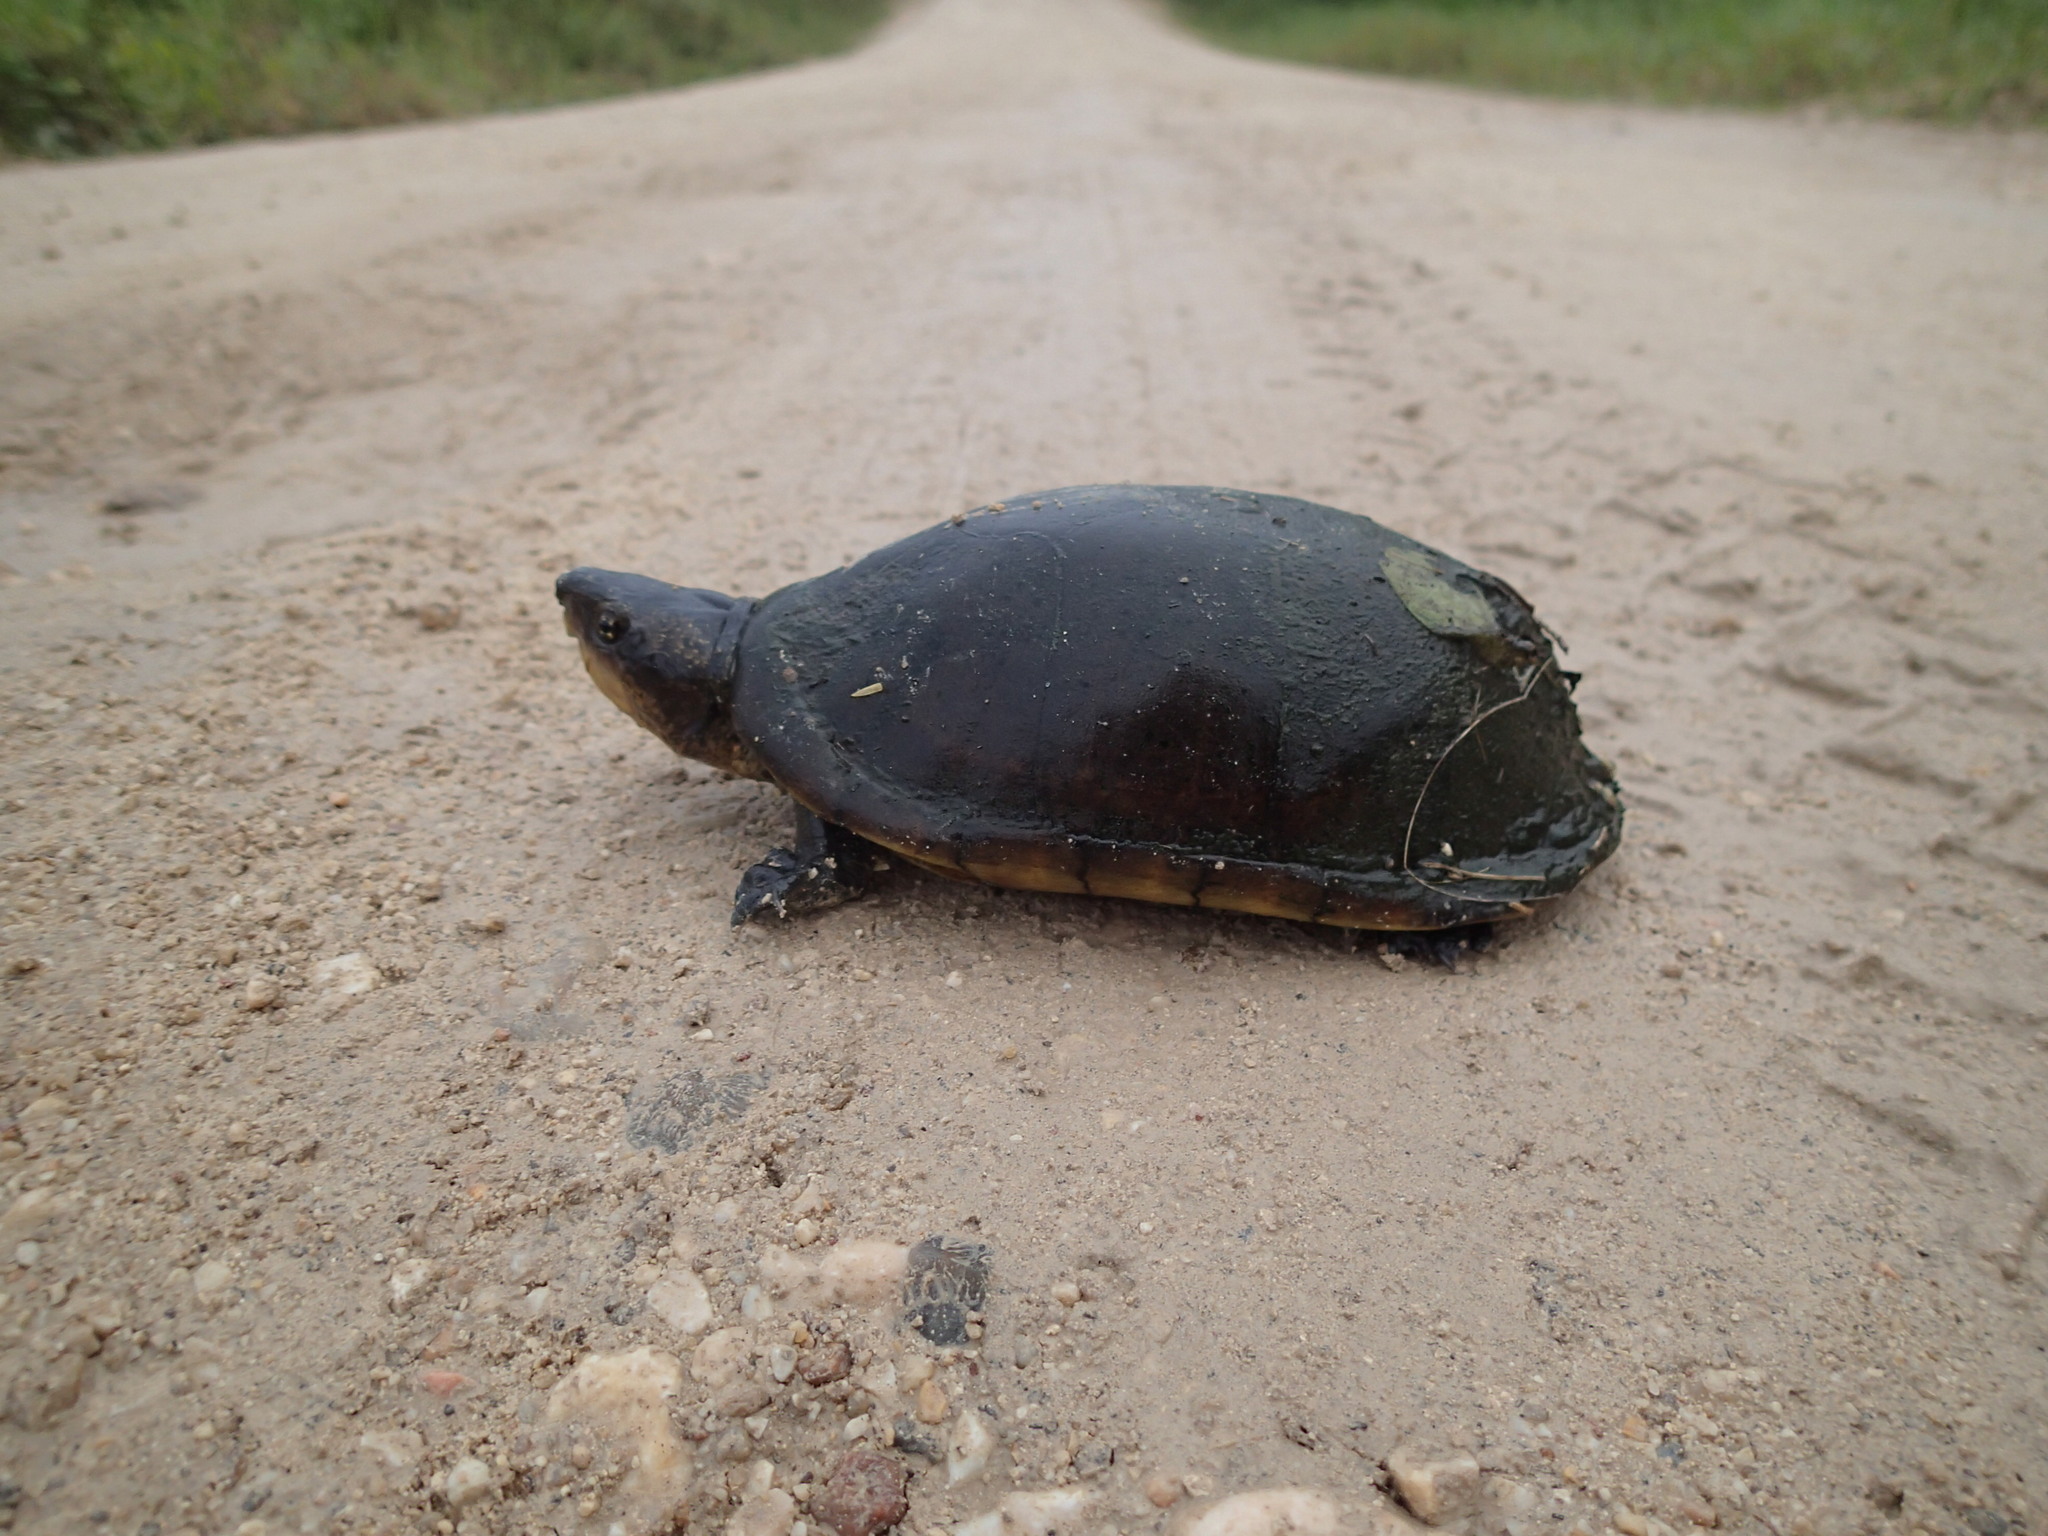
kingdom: Animalia
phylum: Chordata
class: Testudines
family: Kinosternidae
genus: Kinosternon
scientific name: Kinosternon leucostomum
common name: White-lipped mud turtle
